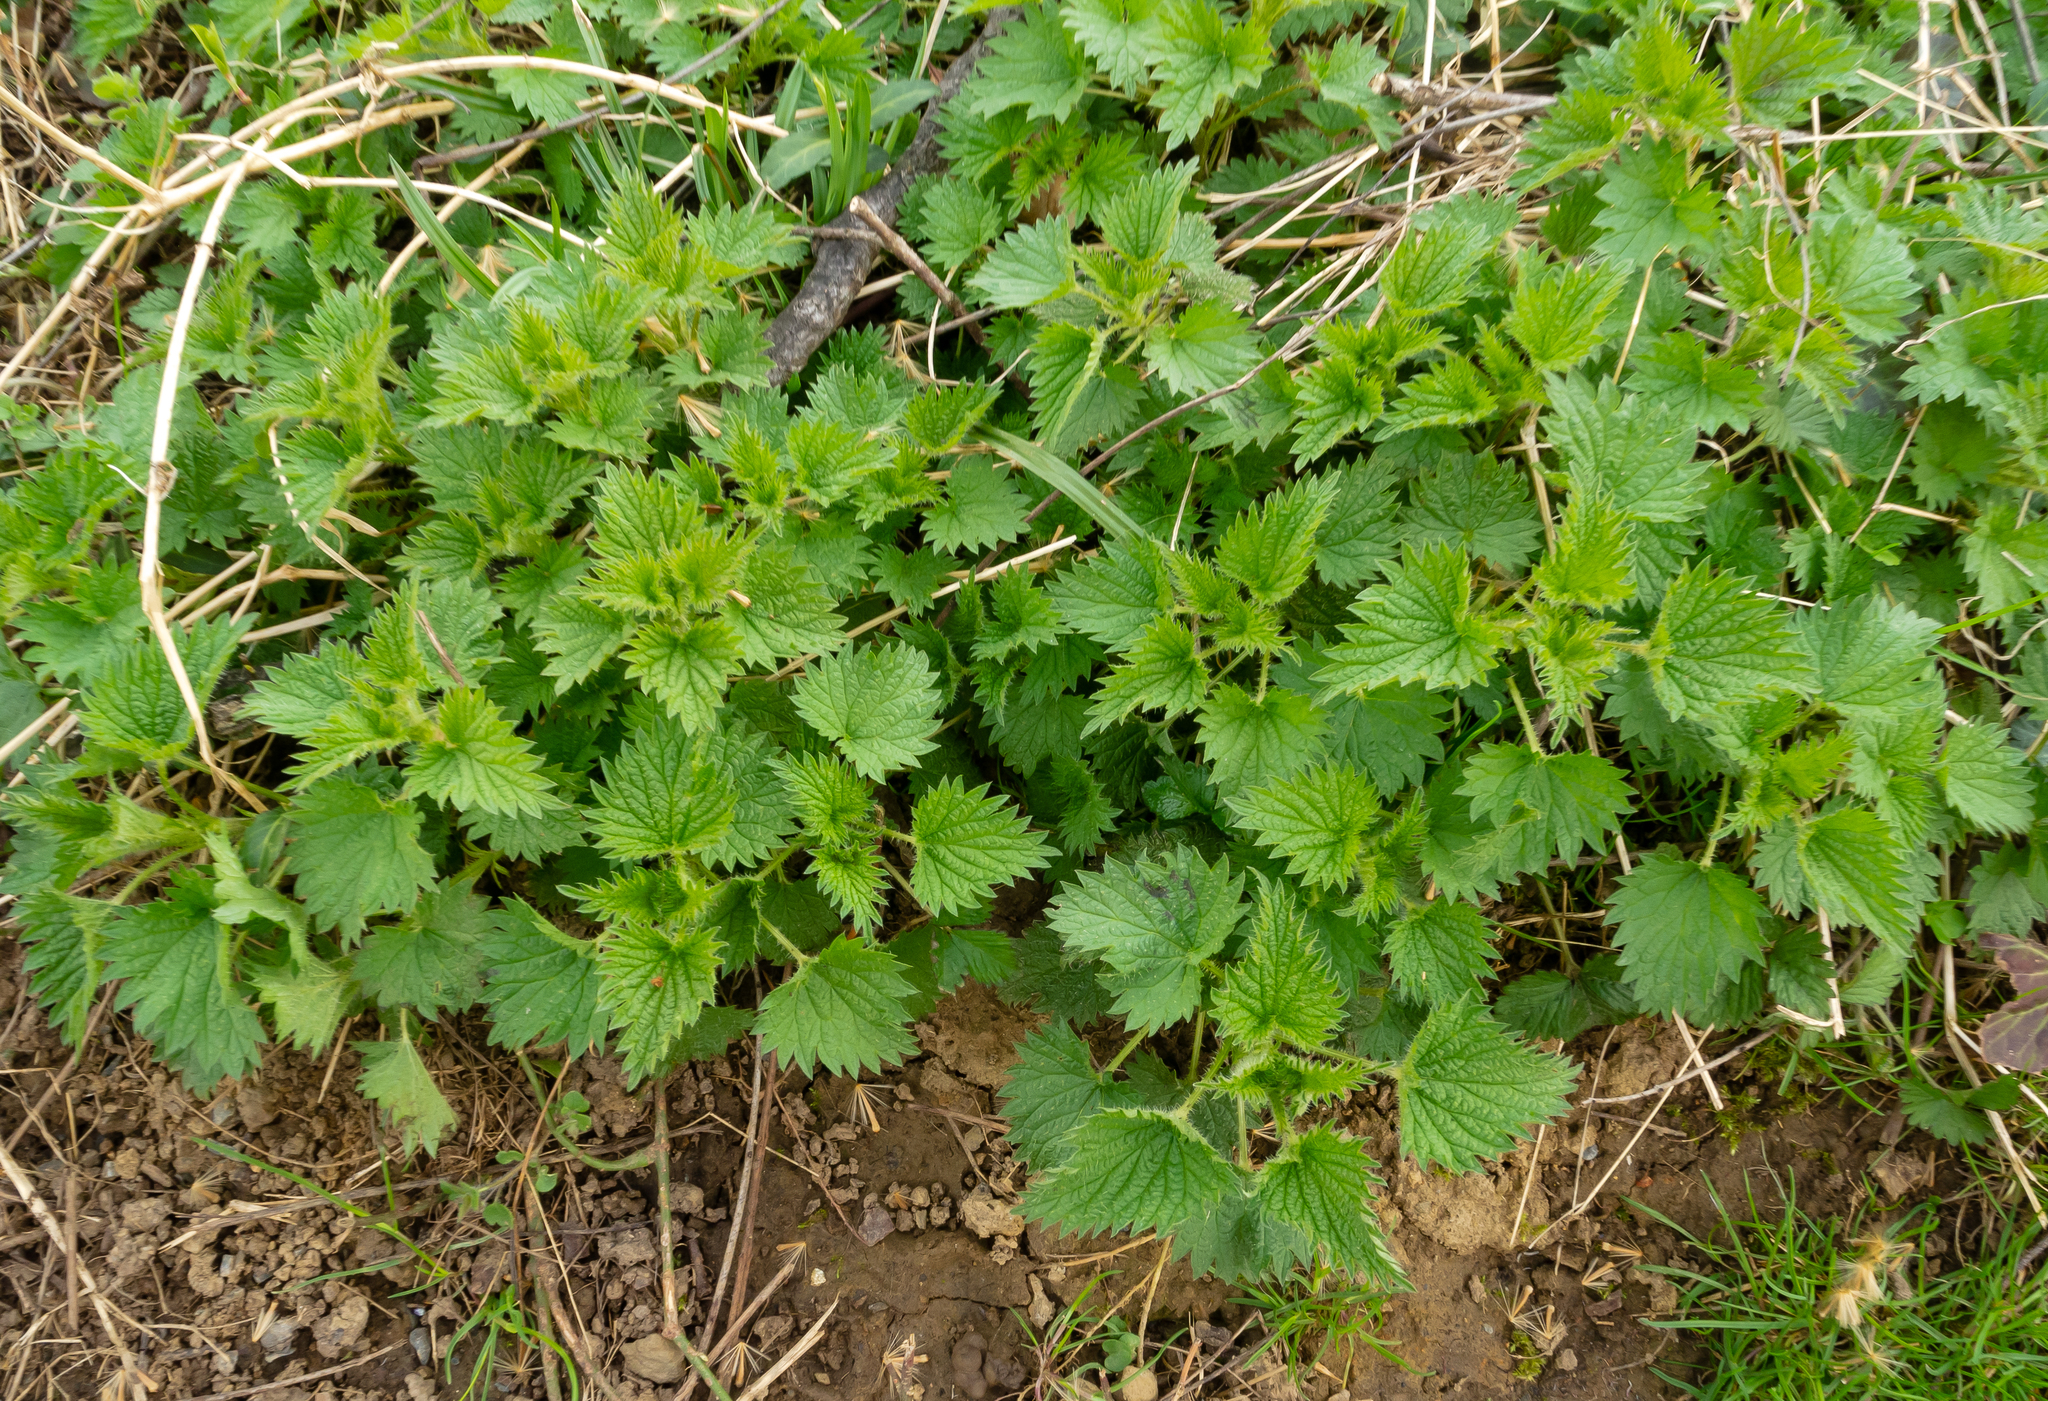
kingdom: Plantae
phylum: Tracheophyta
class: Magnoliopsida
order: Rosales
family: Urticaceae
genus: Urtica
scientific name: Urtica dioica
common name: Common nettle
